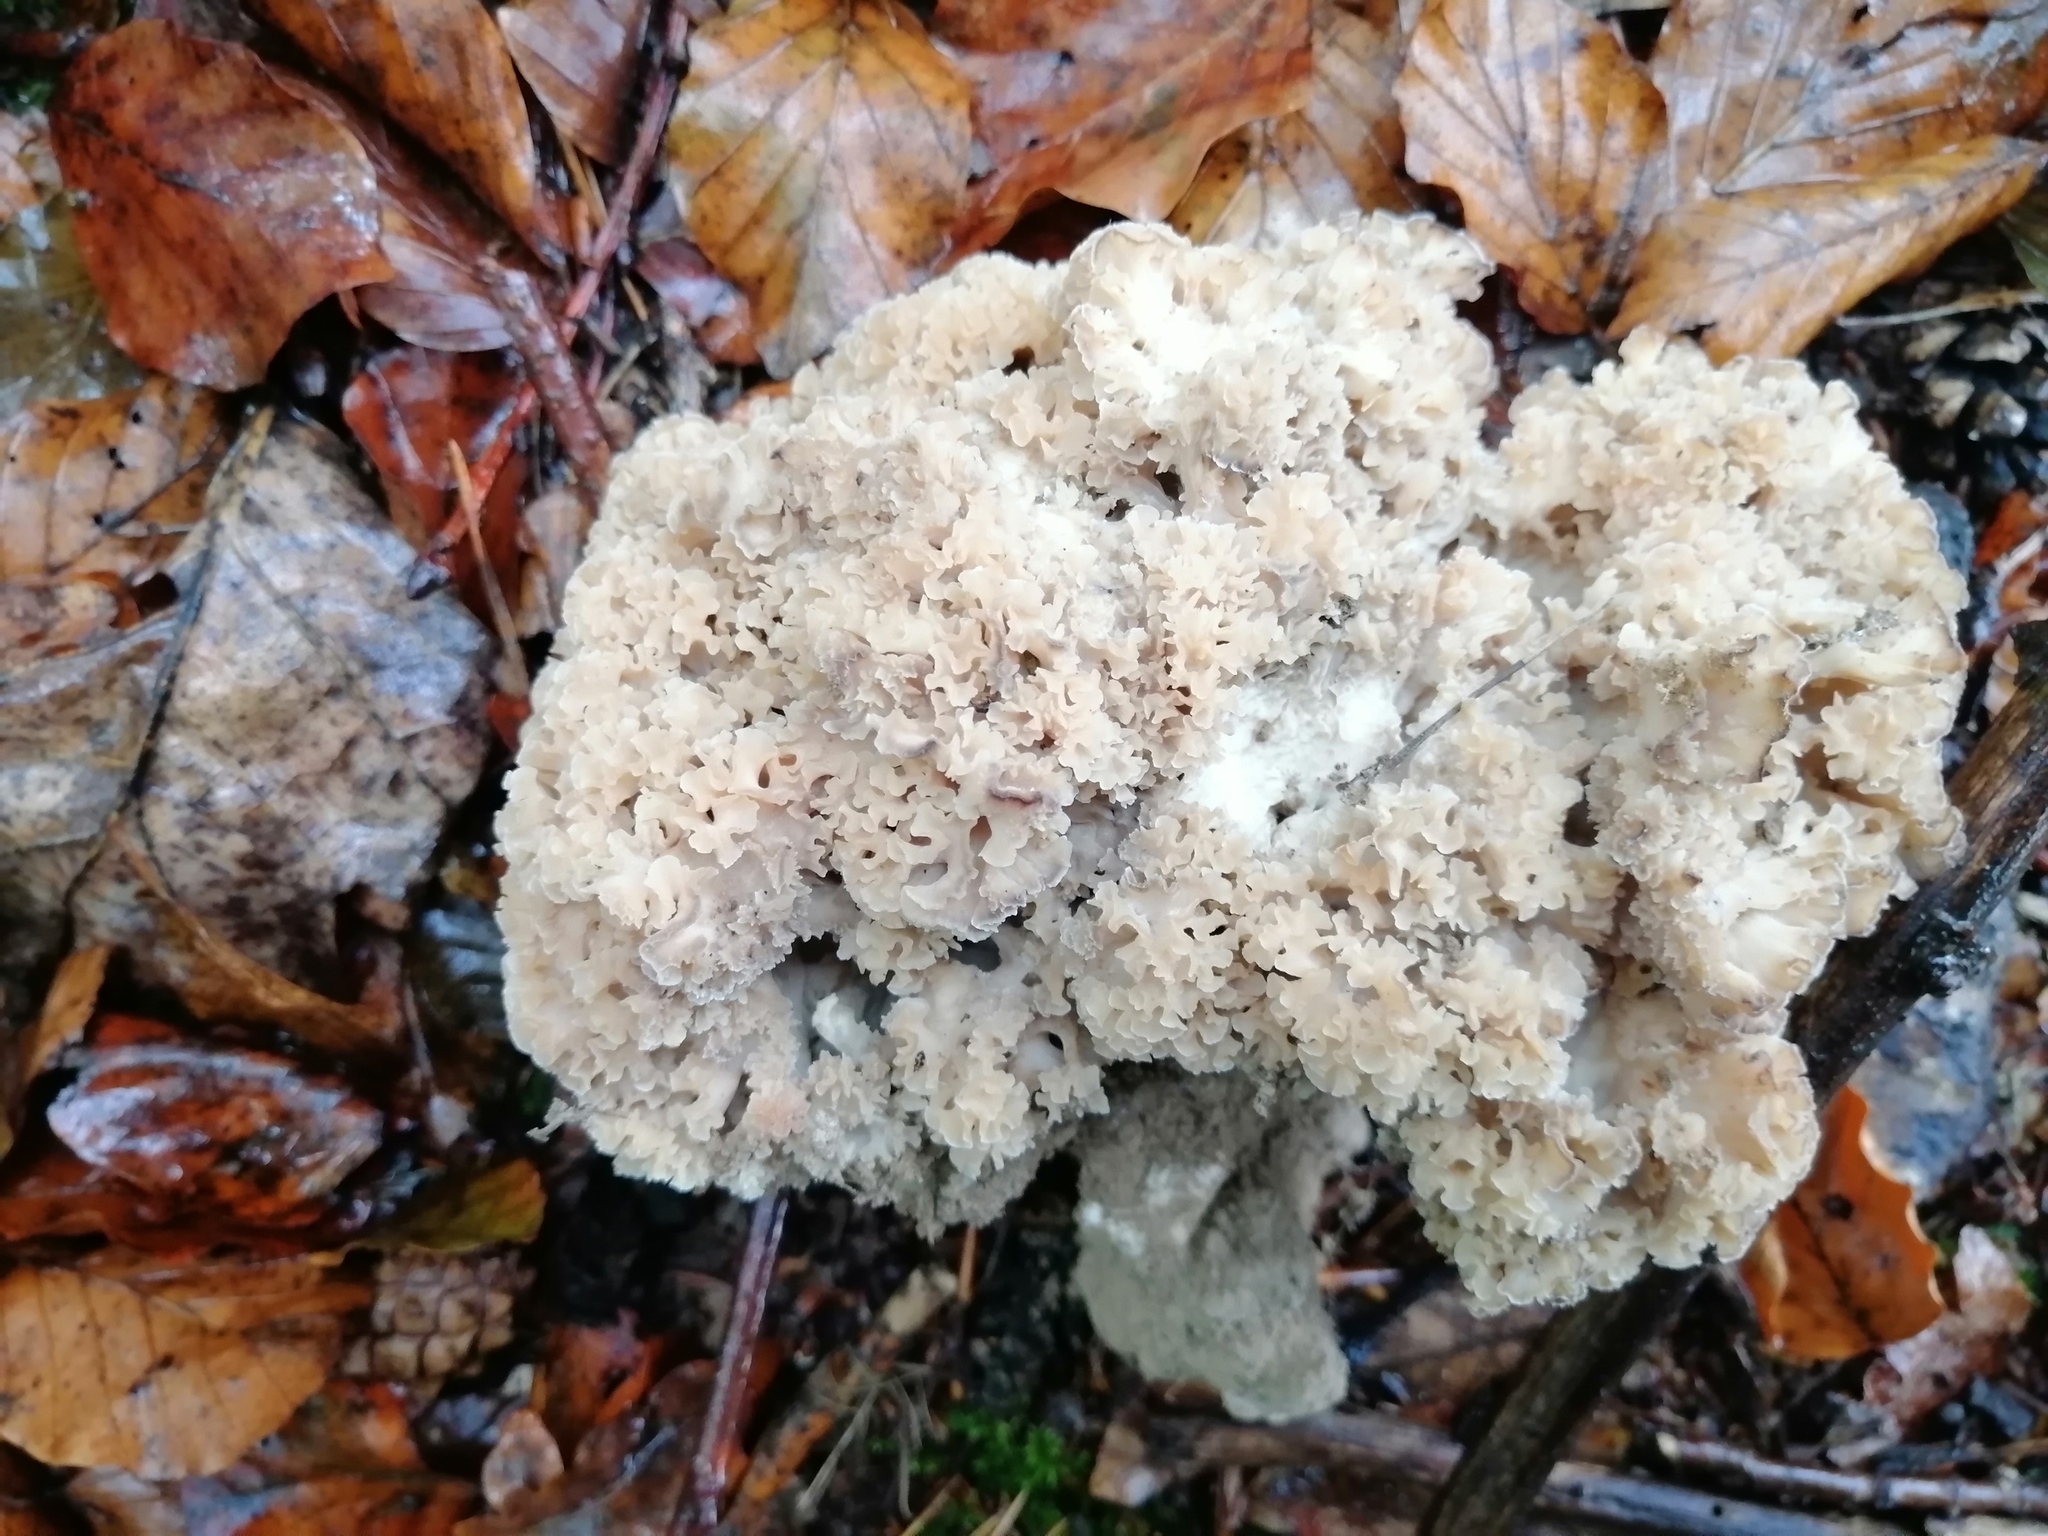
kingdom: Fungi
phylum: Basidiomycota
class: Agaricomycetes
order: Polyporales
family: Sparassidaceae
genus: Sparassis
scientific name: Sparassis crispa
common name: Brain fungus
